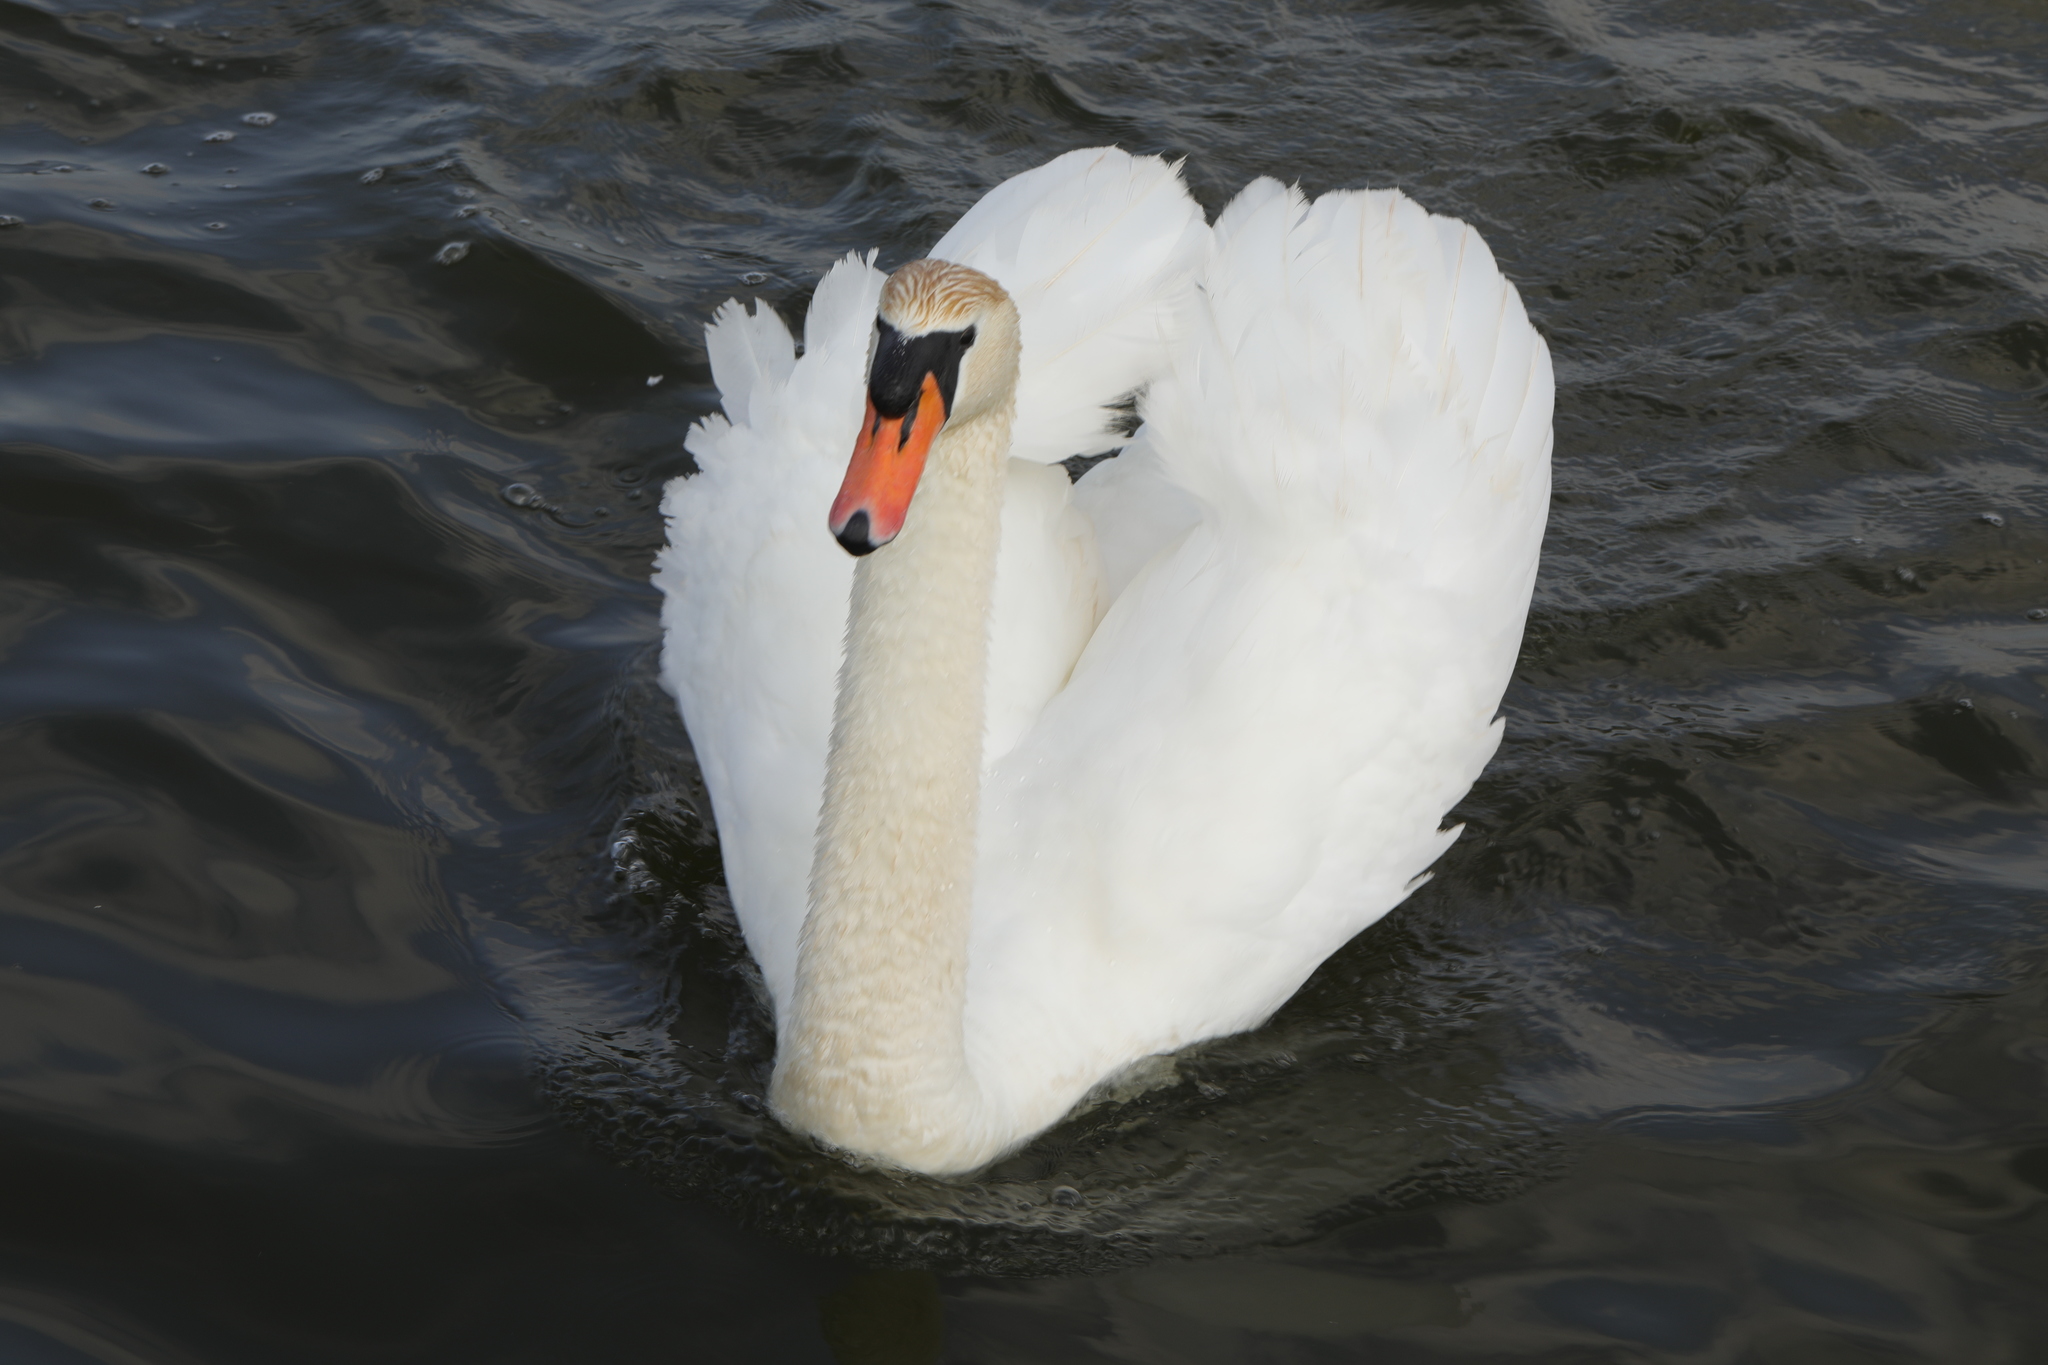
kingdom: Animalia
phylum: Chordata
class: Aves
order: Anseriformes
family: Anatidae
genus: Cygnus
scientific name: Cygnus olor
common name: Mute swan
